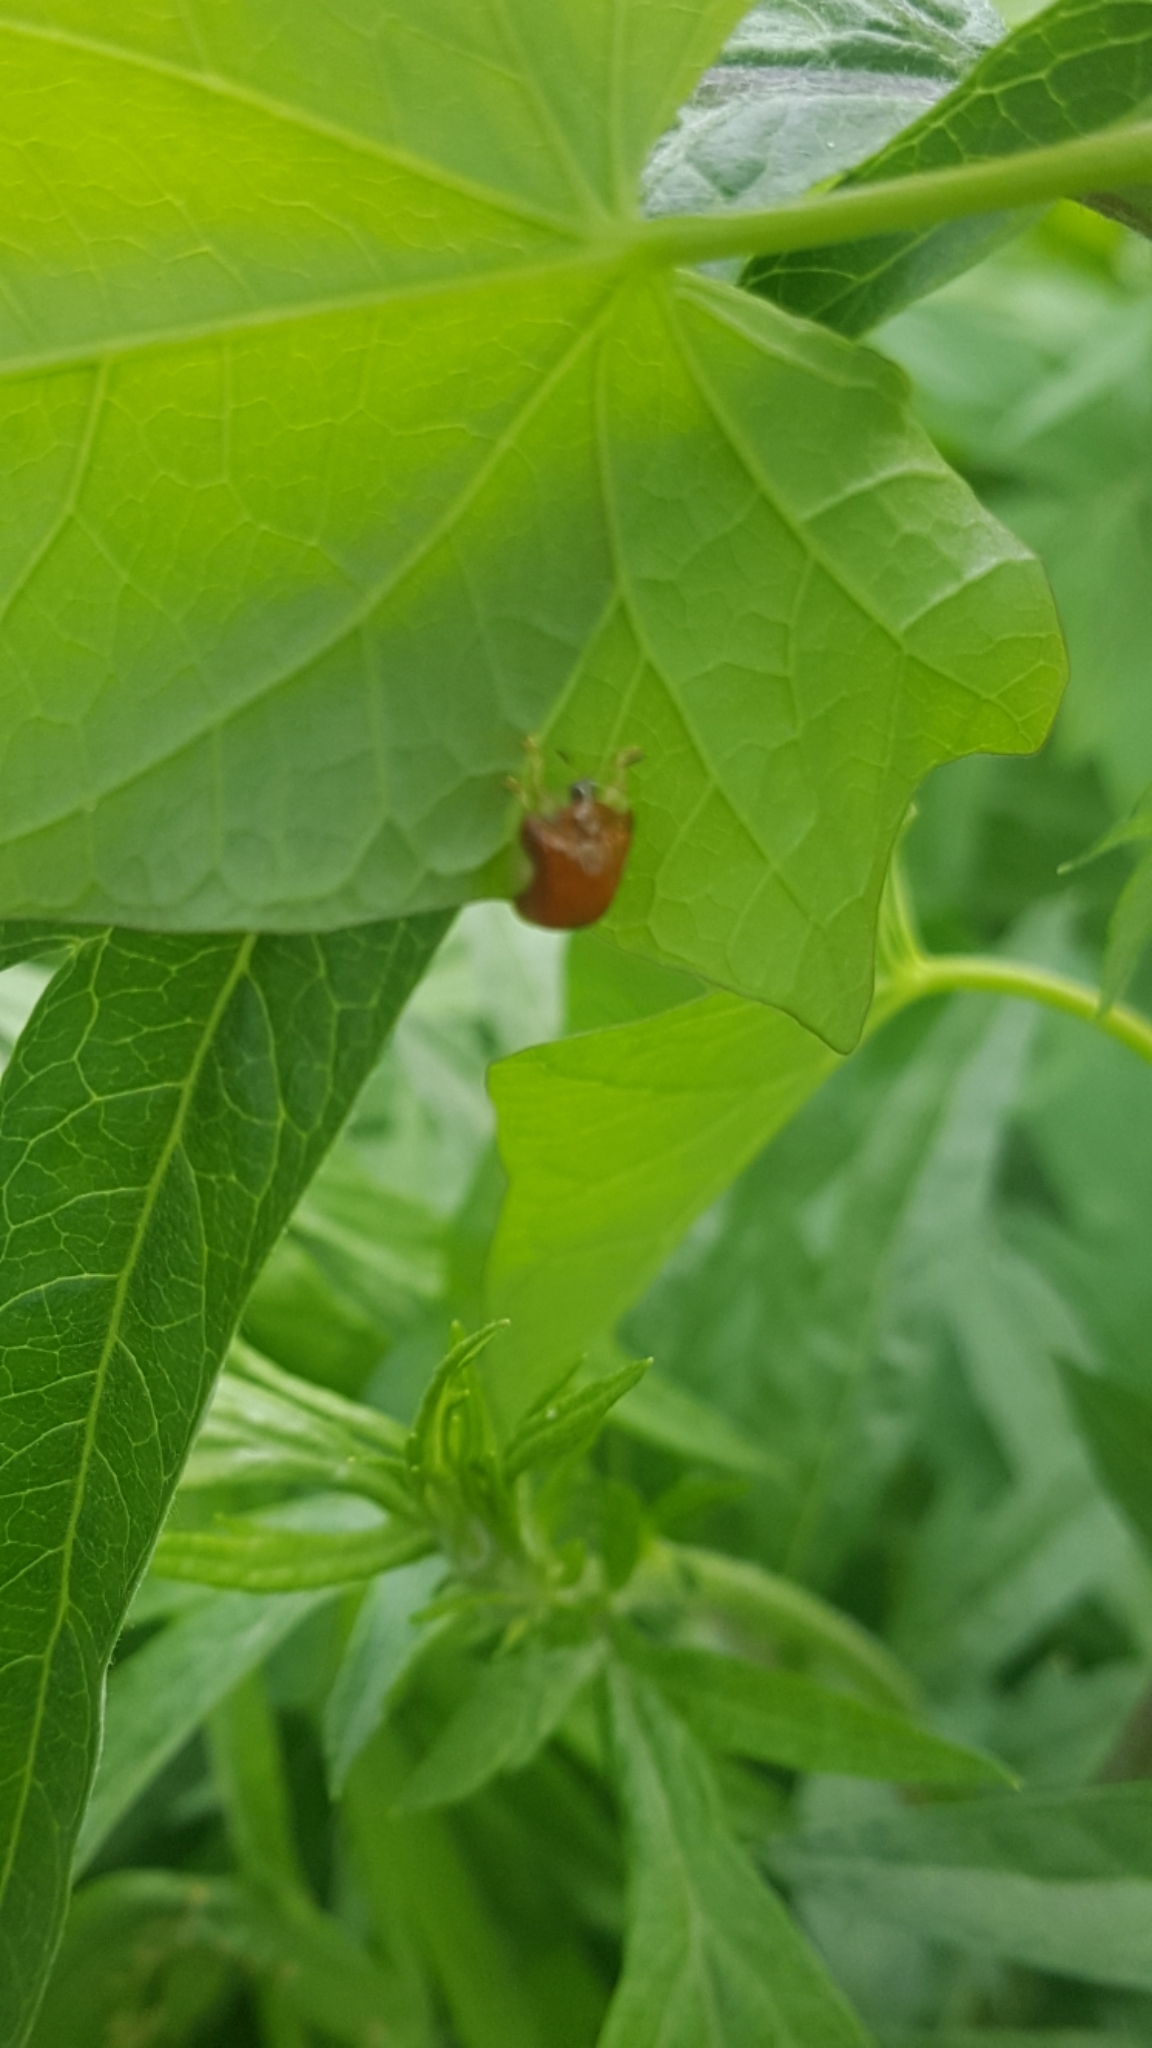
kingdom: Animalia
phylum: Arthropoda
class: Insecta
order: Coleoptera
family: Chrysomelidae
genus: Charidotella
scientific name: Charidotella purpurata
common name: Small orange tortoise beetle
